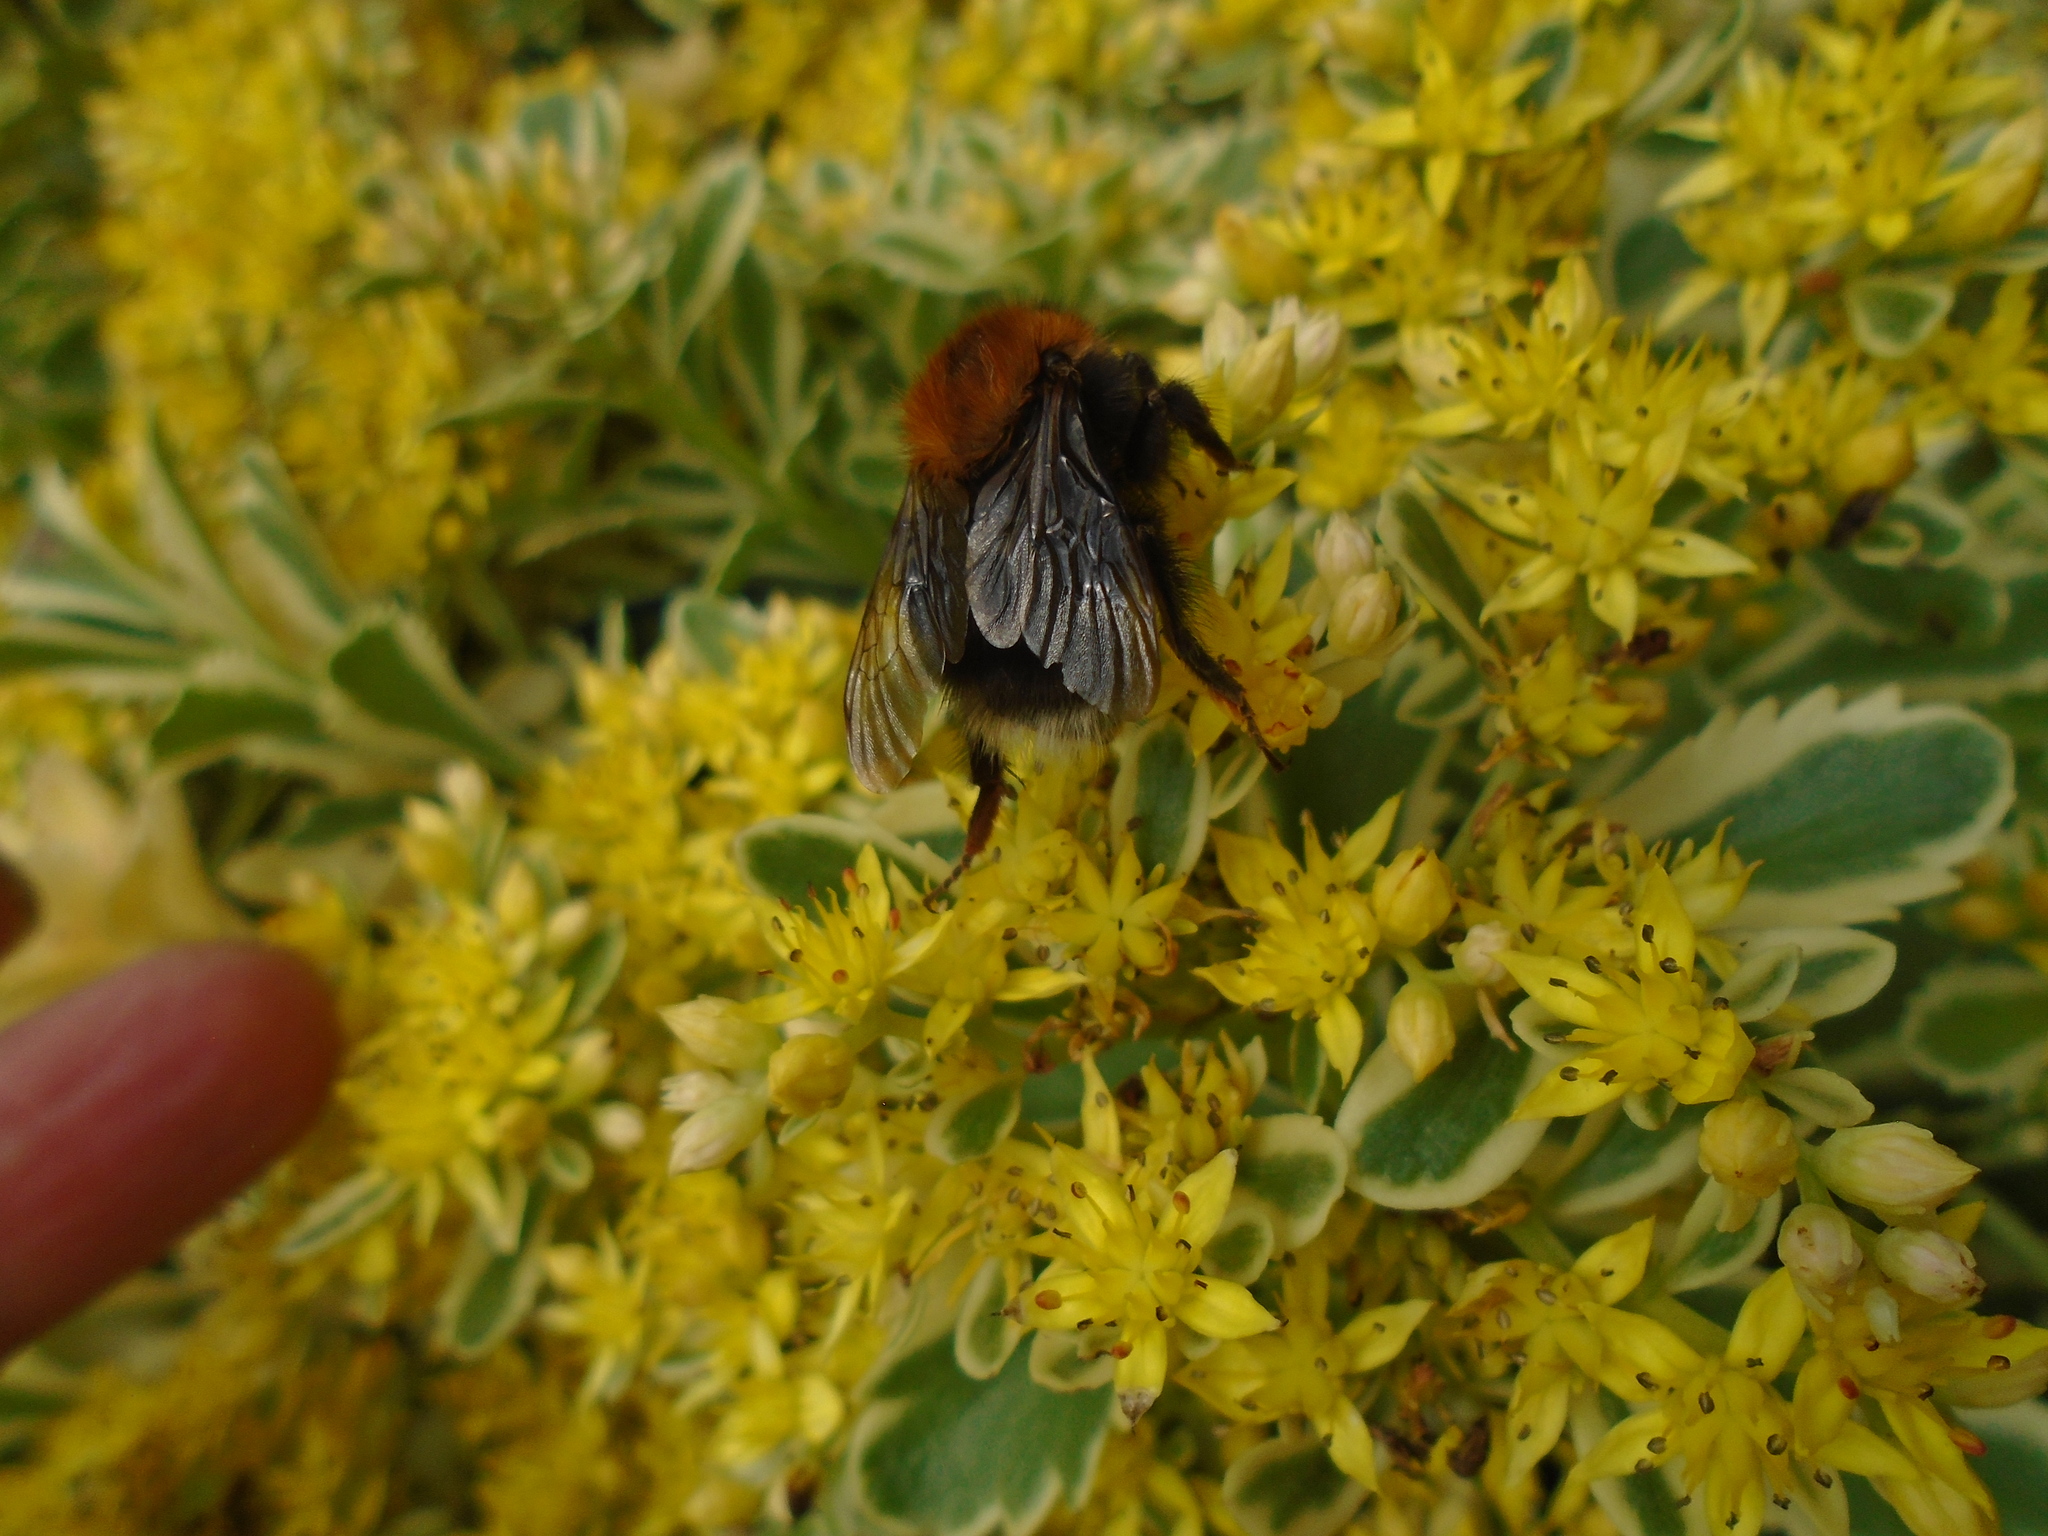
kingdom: Animalia
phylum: Arthropoda
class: Insecta
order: Hymenoptera
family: Apidae
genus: Bombus
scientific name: Bombus hypnorum
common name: New garden bumblebee
